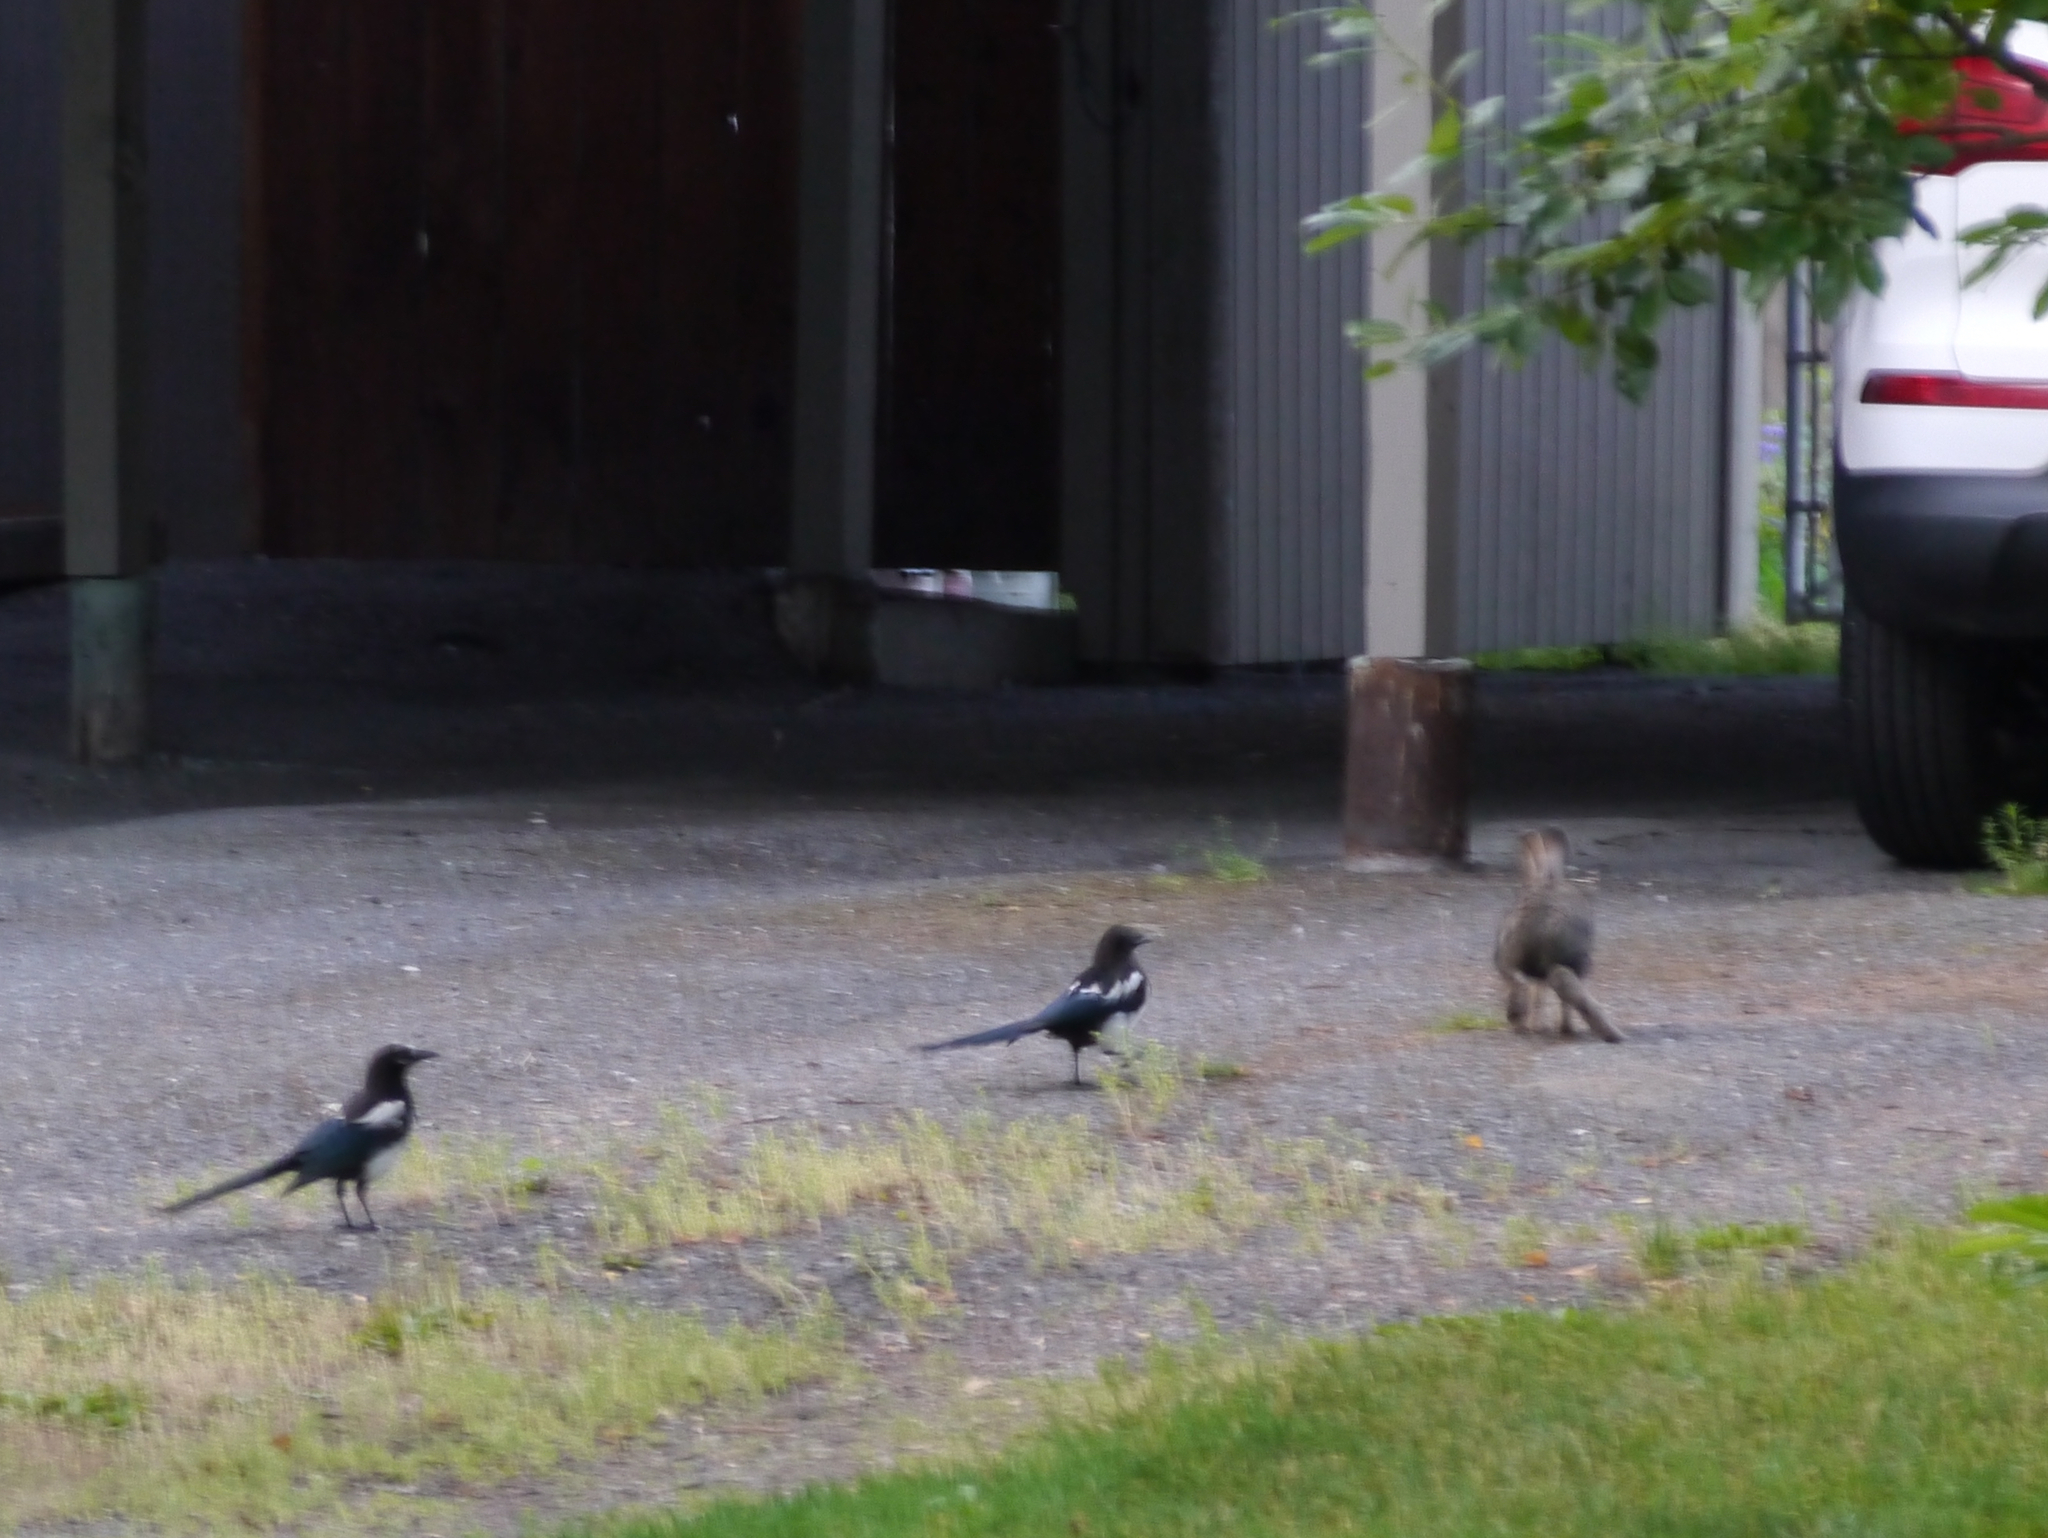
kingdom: Animalia
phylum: Chordata
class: Mammalia
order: Lagomorpha
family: Leporidae
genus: Lepus
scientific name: Lepus americanus
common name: Snowshoe hare
